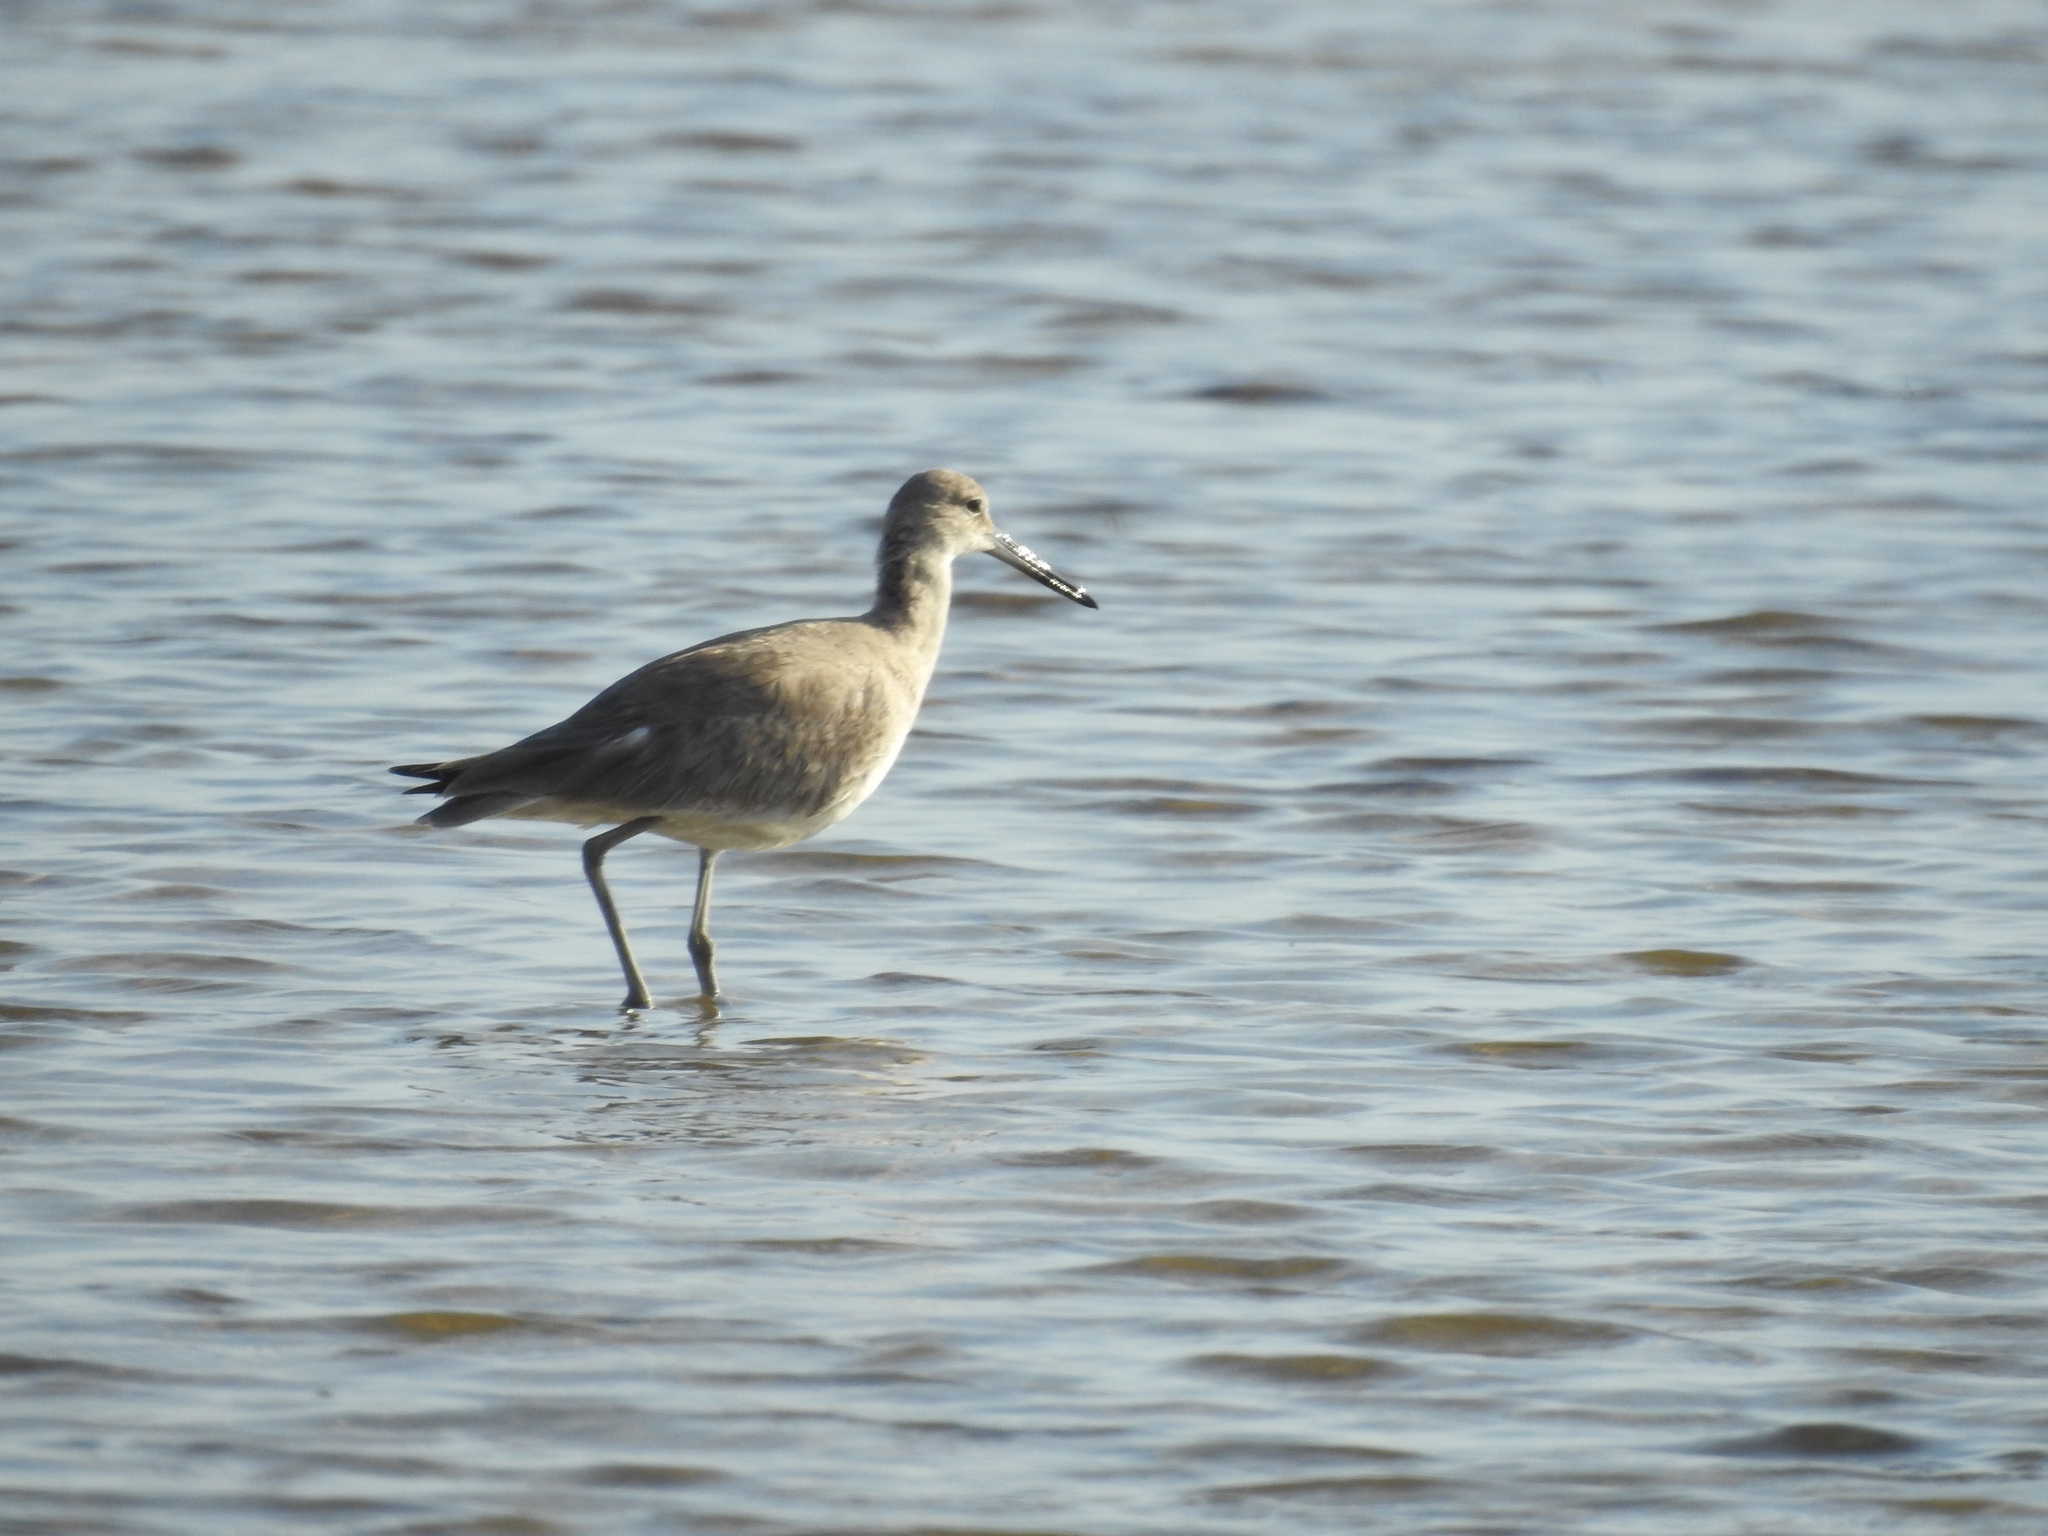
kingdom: Animalia
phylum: Chordata
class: Aves
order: Charadriiformes
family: Scolopacidae
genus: Tringa
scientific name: Tringa semipalmata
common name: Willet
